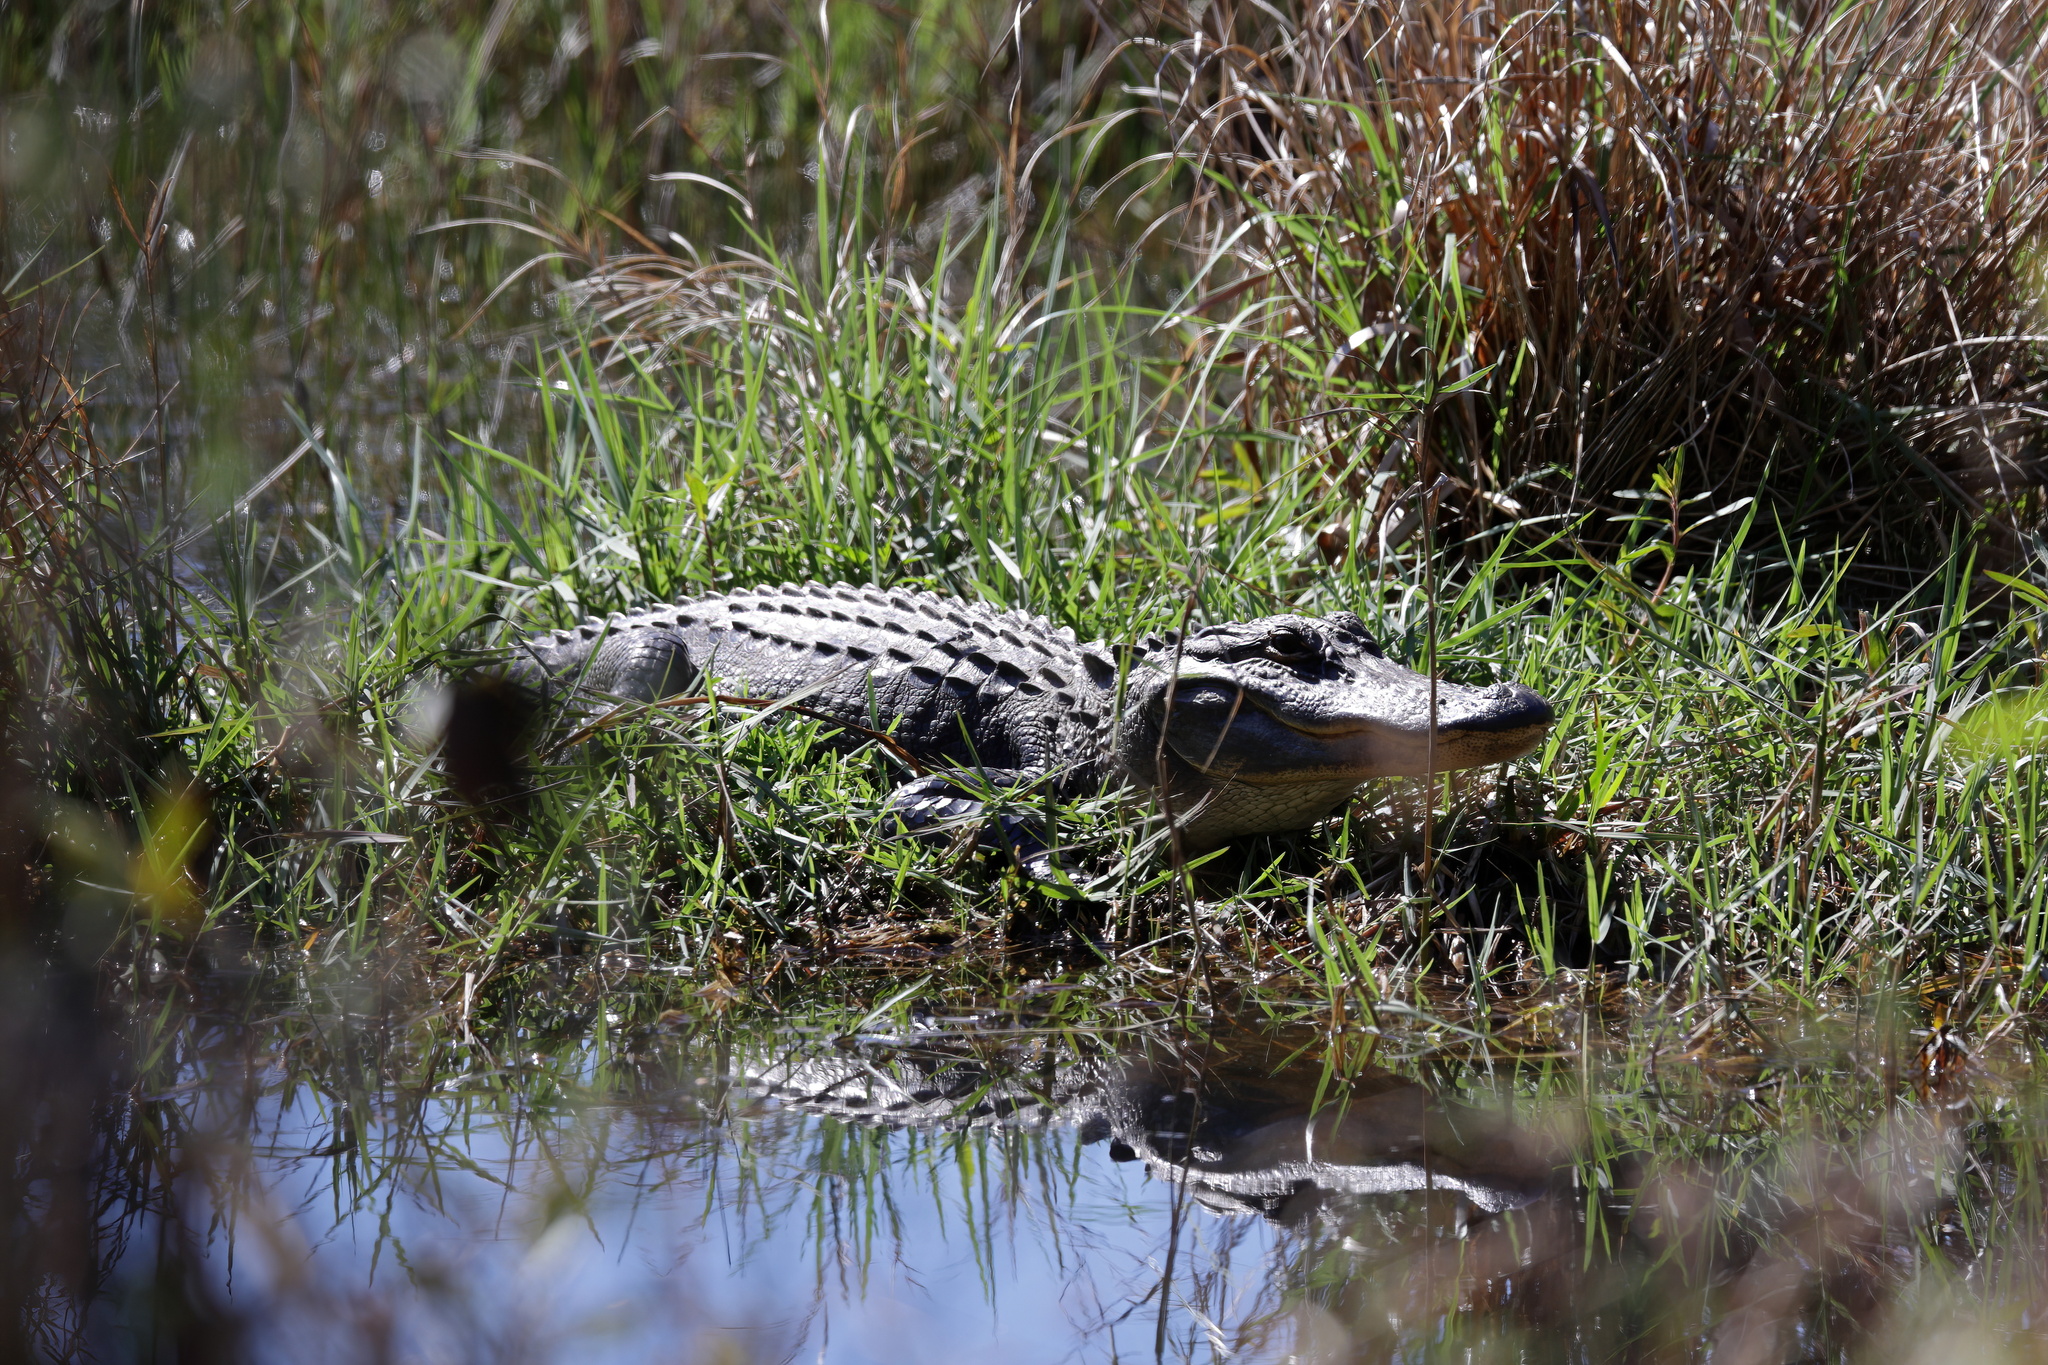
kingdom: Animalia
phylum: Chordata
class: Crocodylia
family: Alligatoridae
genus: Alligator
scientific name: Alligator mississippiensis
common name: American alligator
